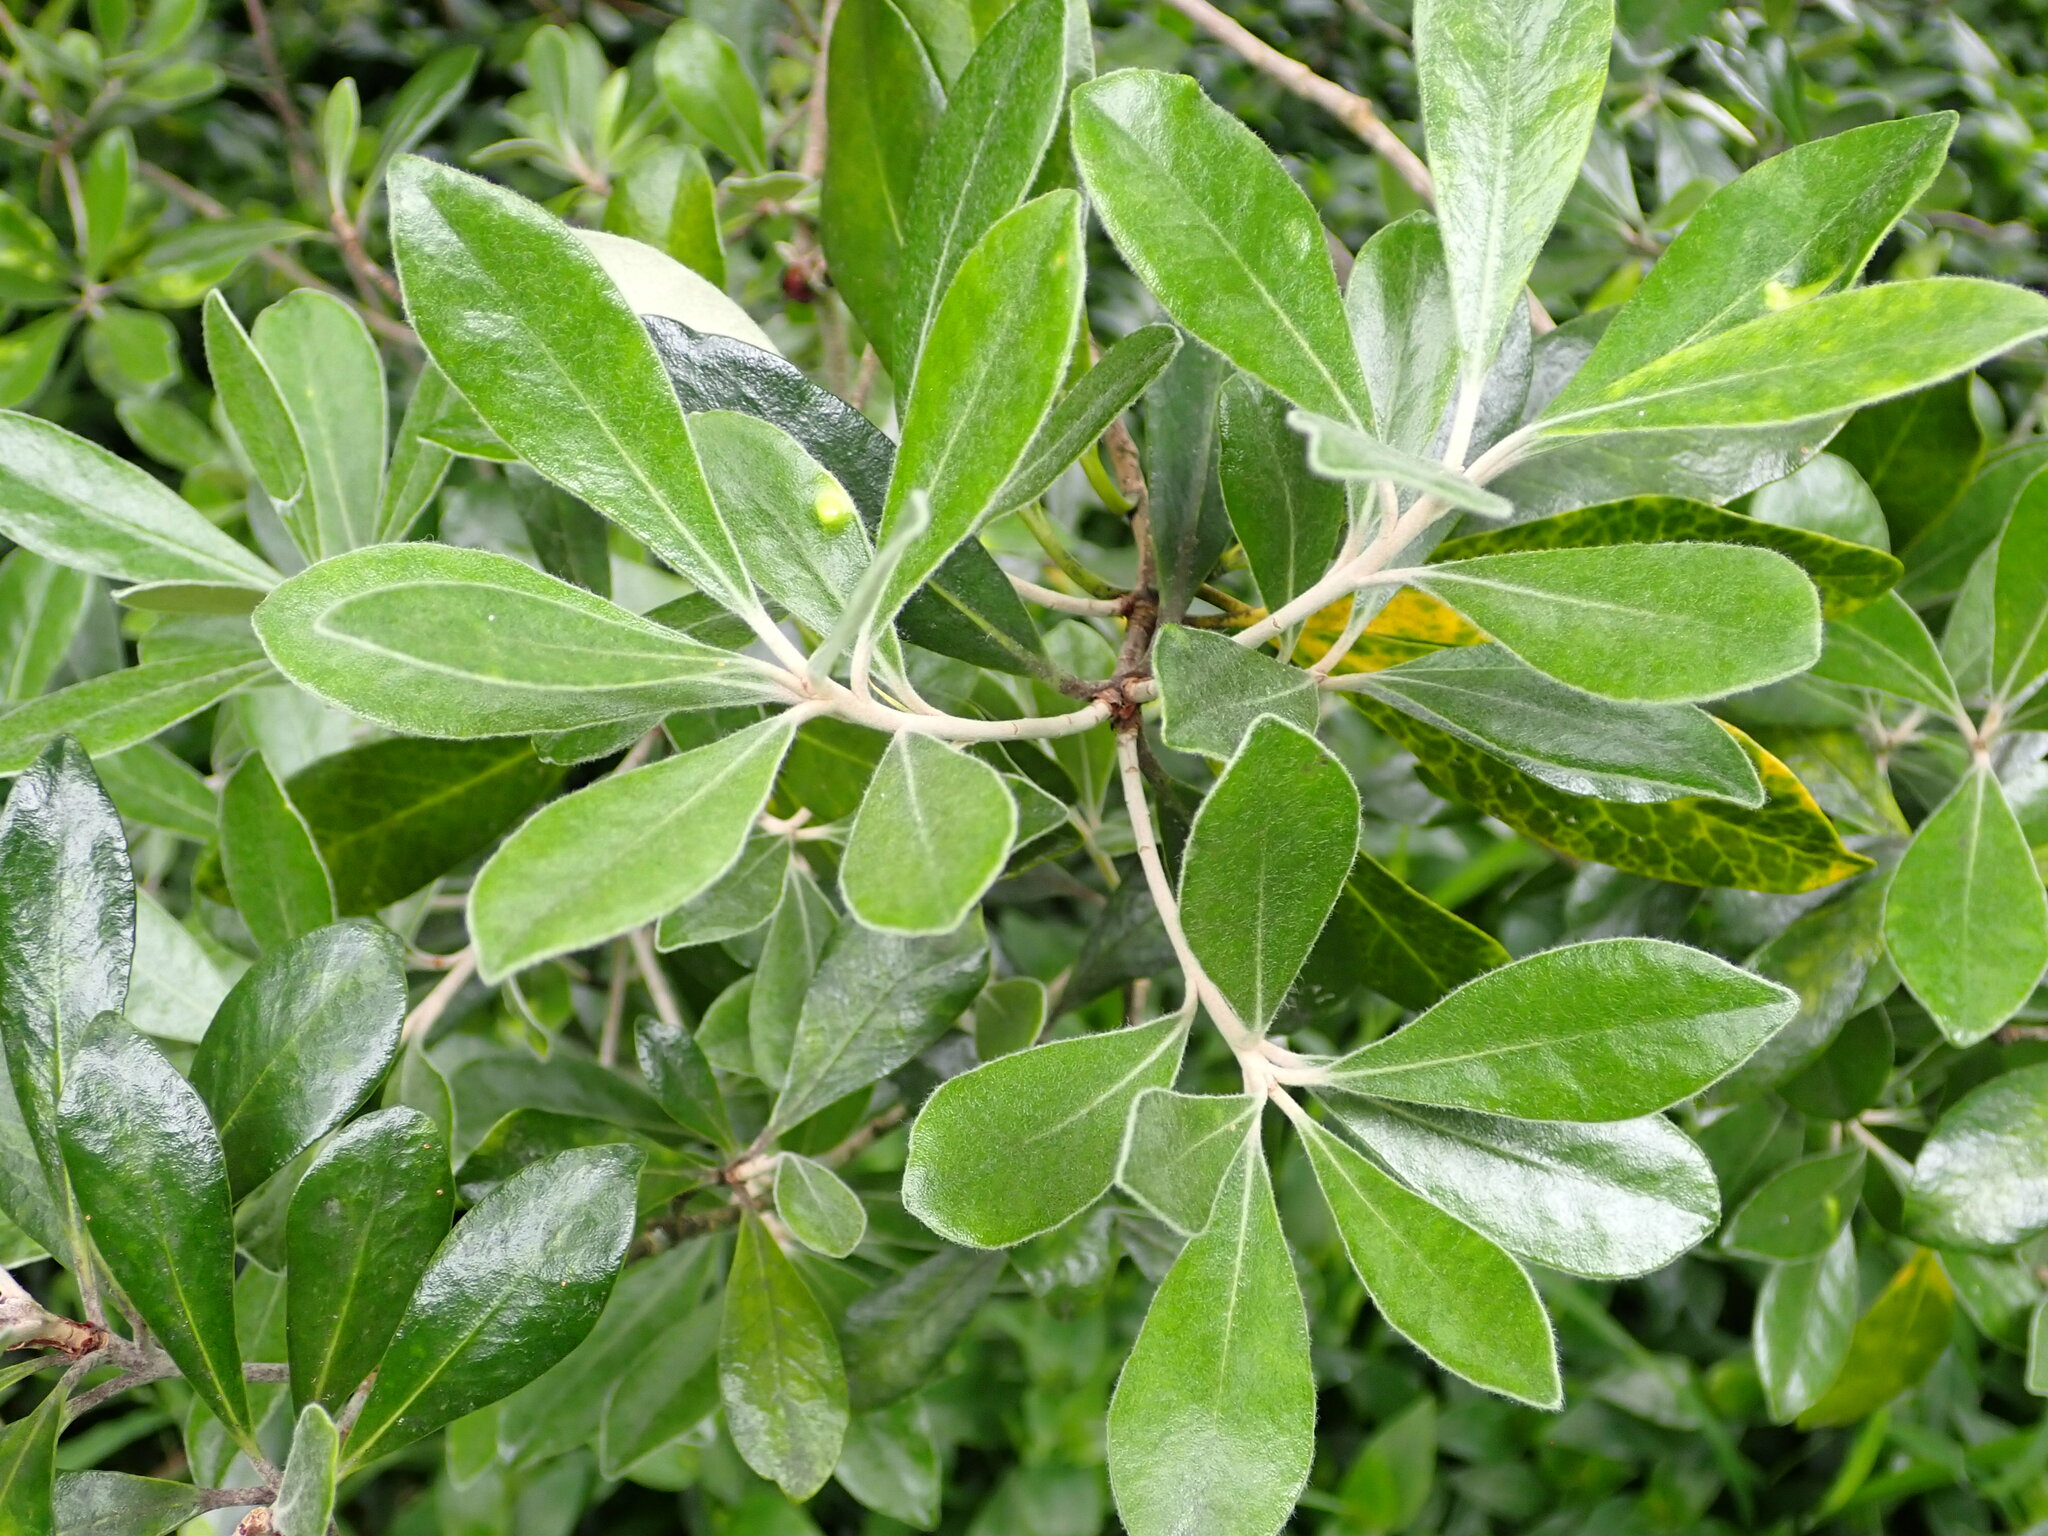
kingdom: Plantae
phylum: Tracheophyta
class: Magnoliopsida
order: Apiales
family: Pittosporaceae
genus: Pittosporum
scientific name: Pittosporum crassifolium
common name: Karo
